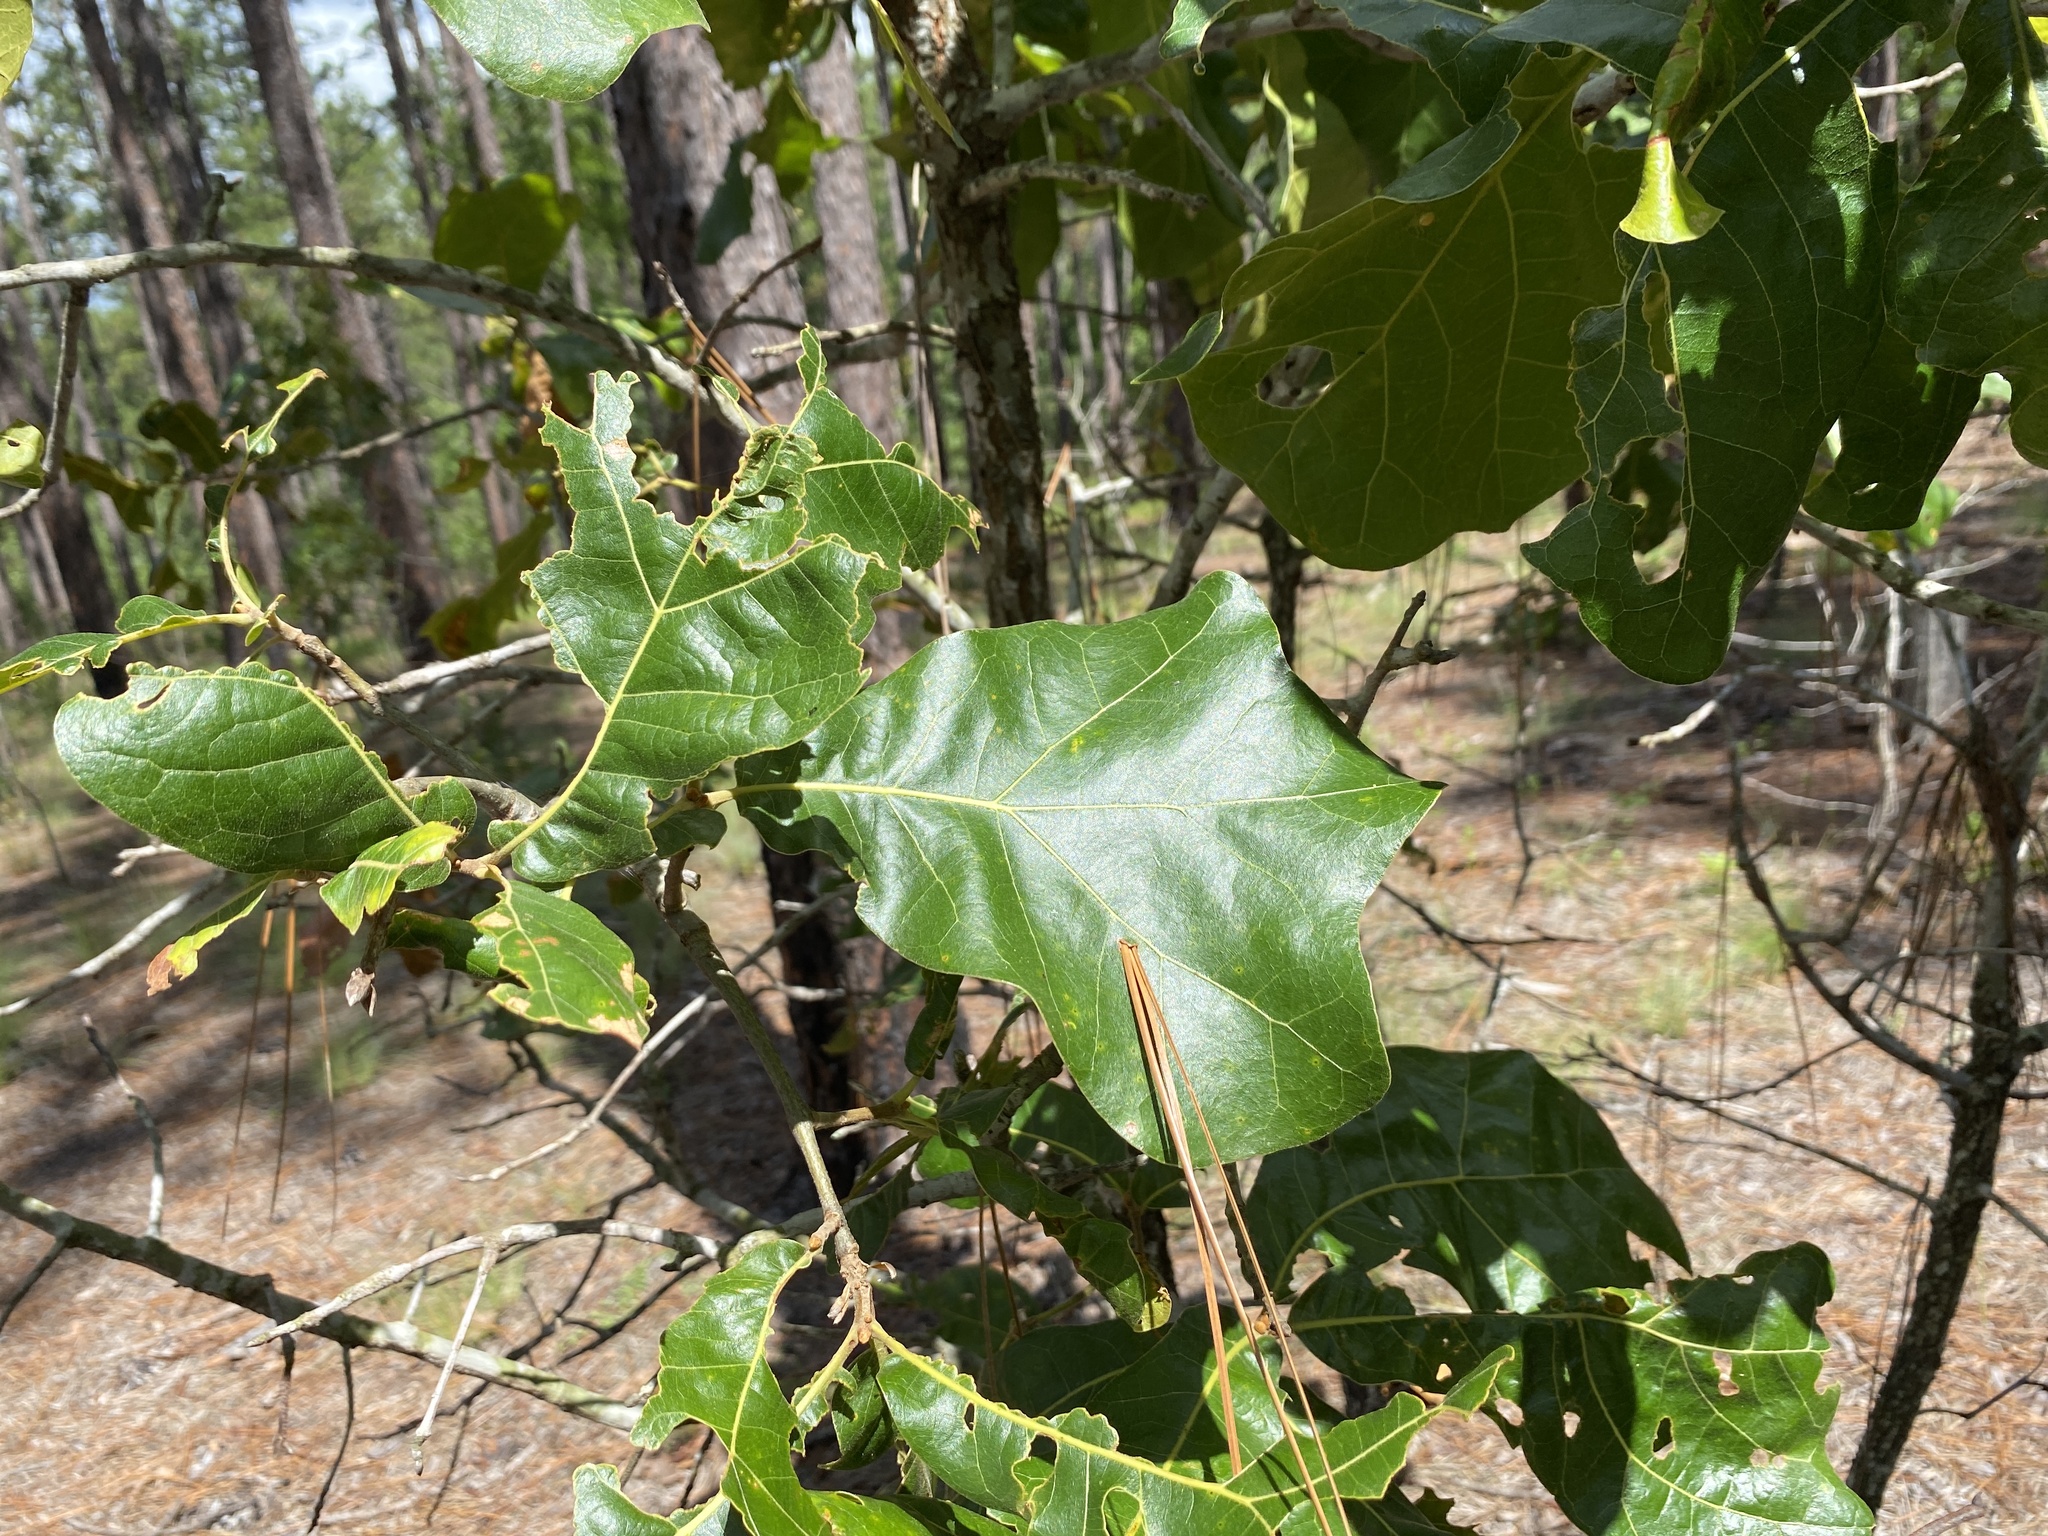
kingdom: Plantae
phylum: Tracheophyta
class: Magnoliopsida
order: Fagales
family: Fagaceae
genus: Quercus
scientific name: Quercus marilandica
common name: Blackjack oak
